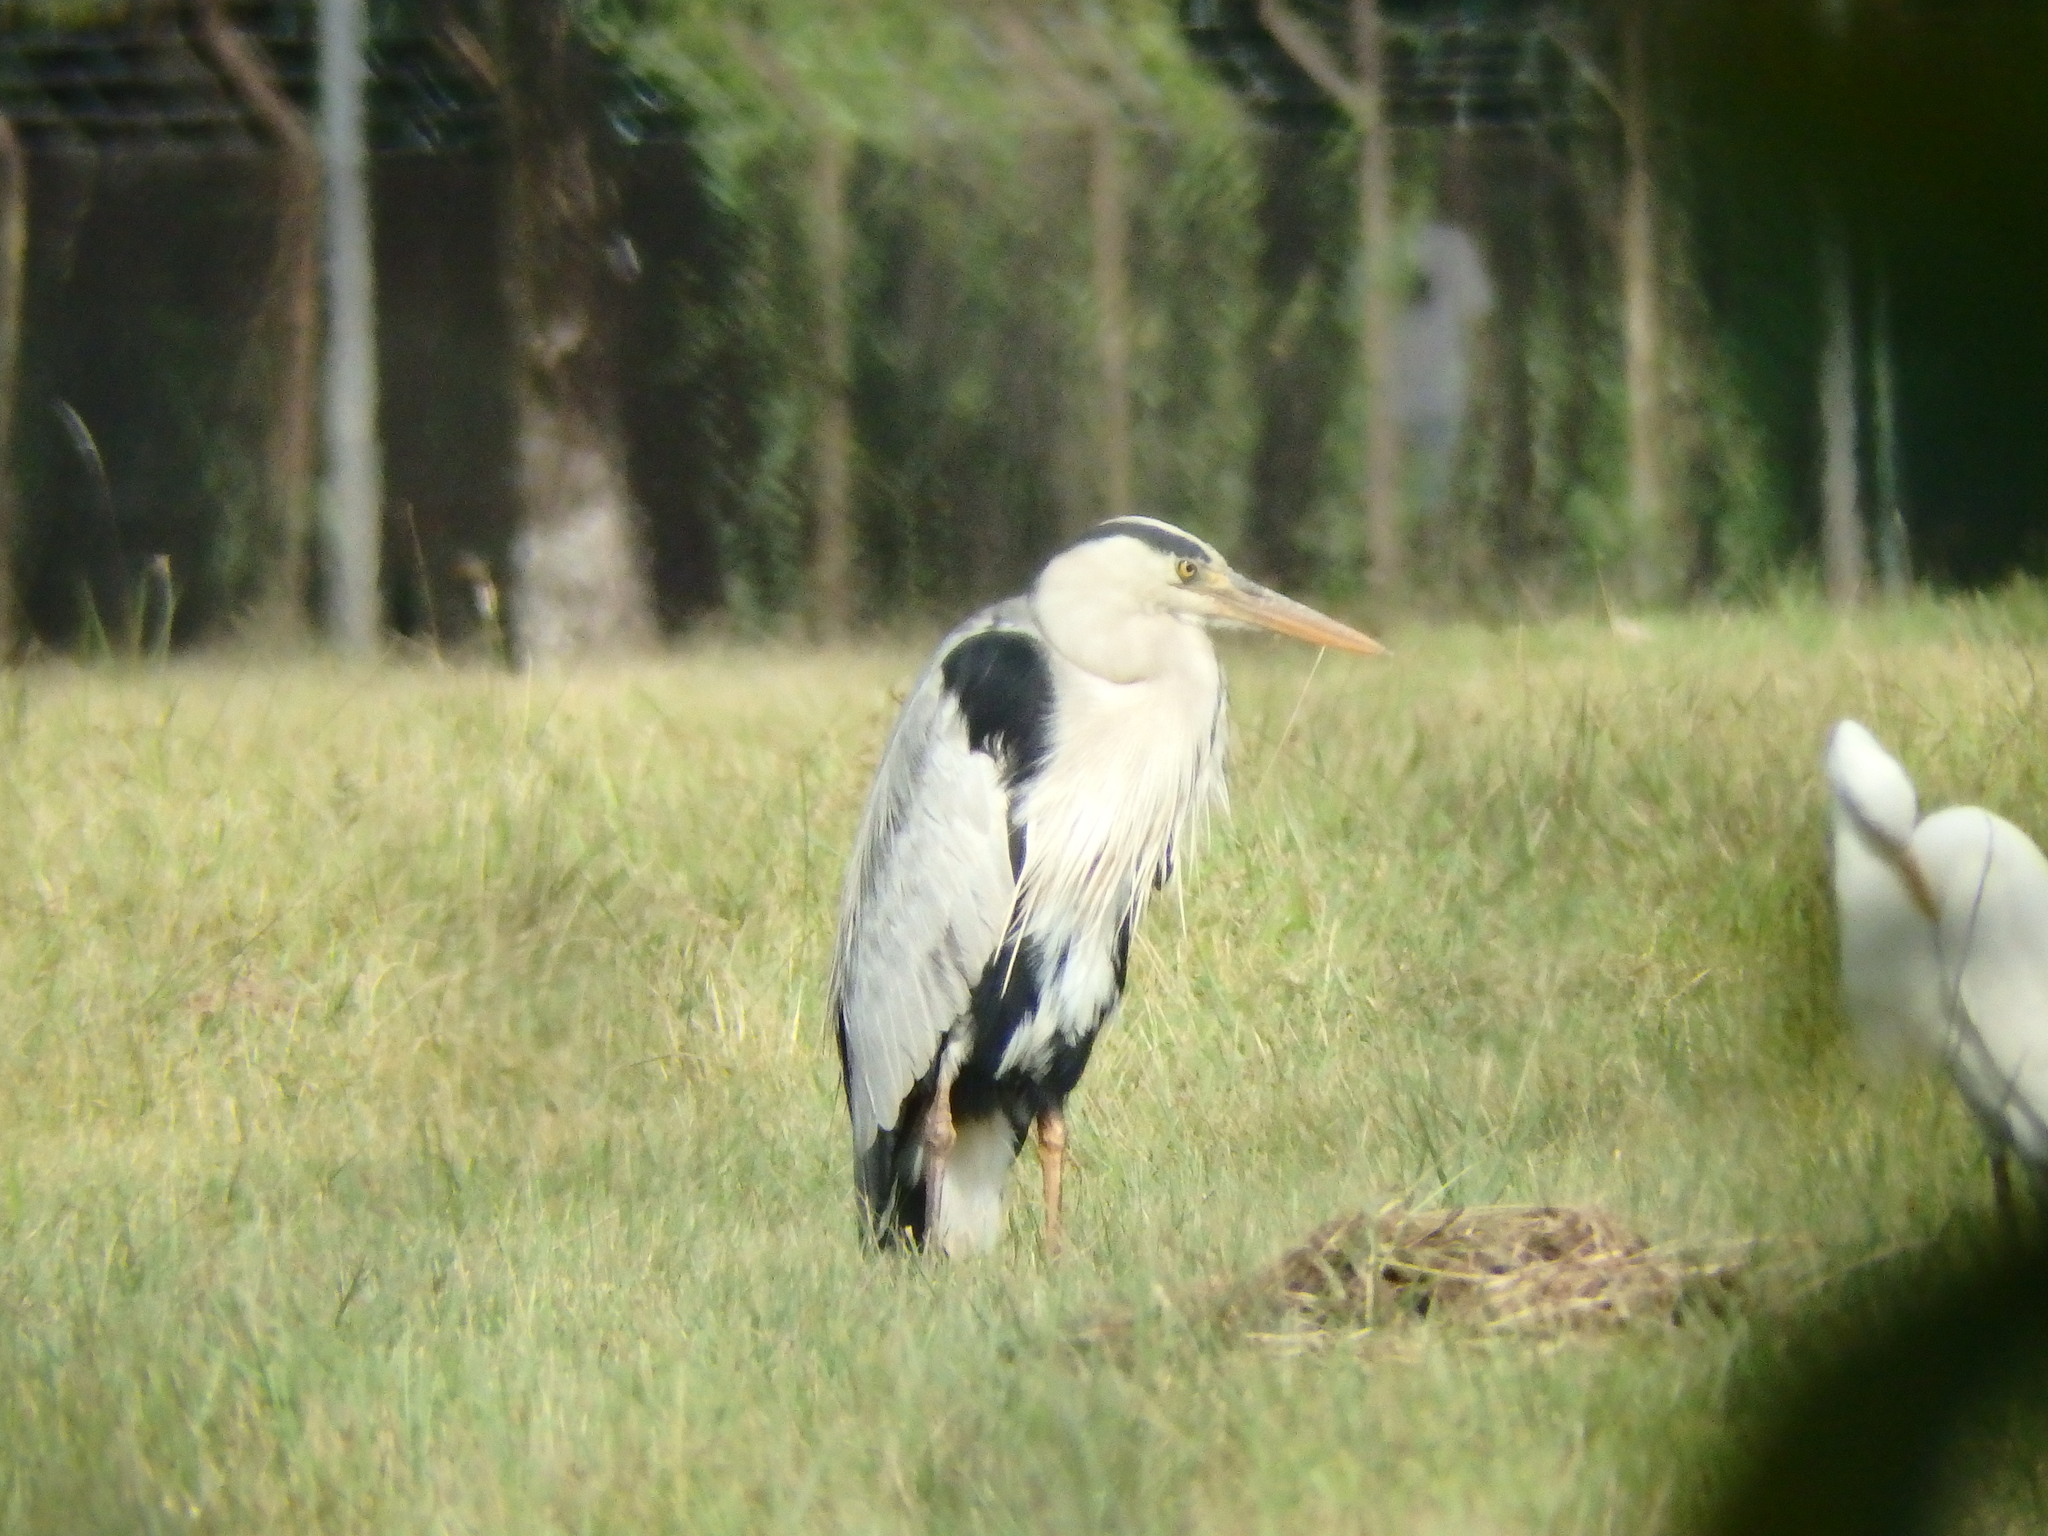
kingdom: Animalia
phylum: Chordata
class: Aves
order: Pelecaniformes
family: Ardeidae
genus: Ardea
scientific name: Ardea cinerea
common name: Grey heron
